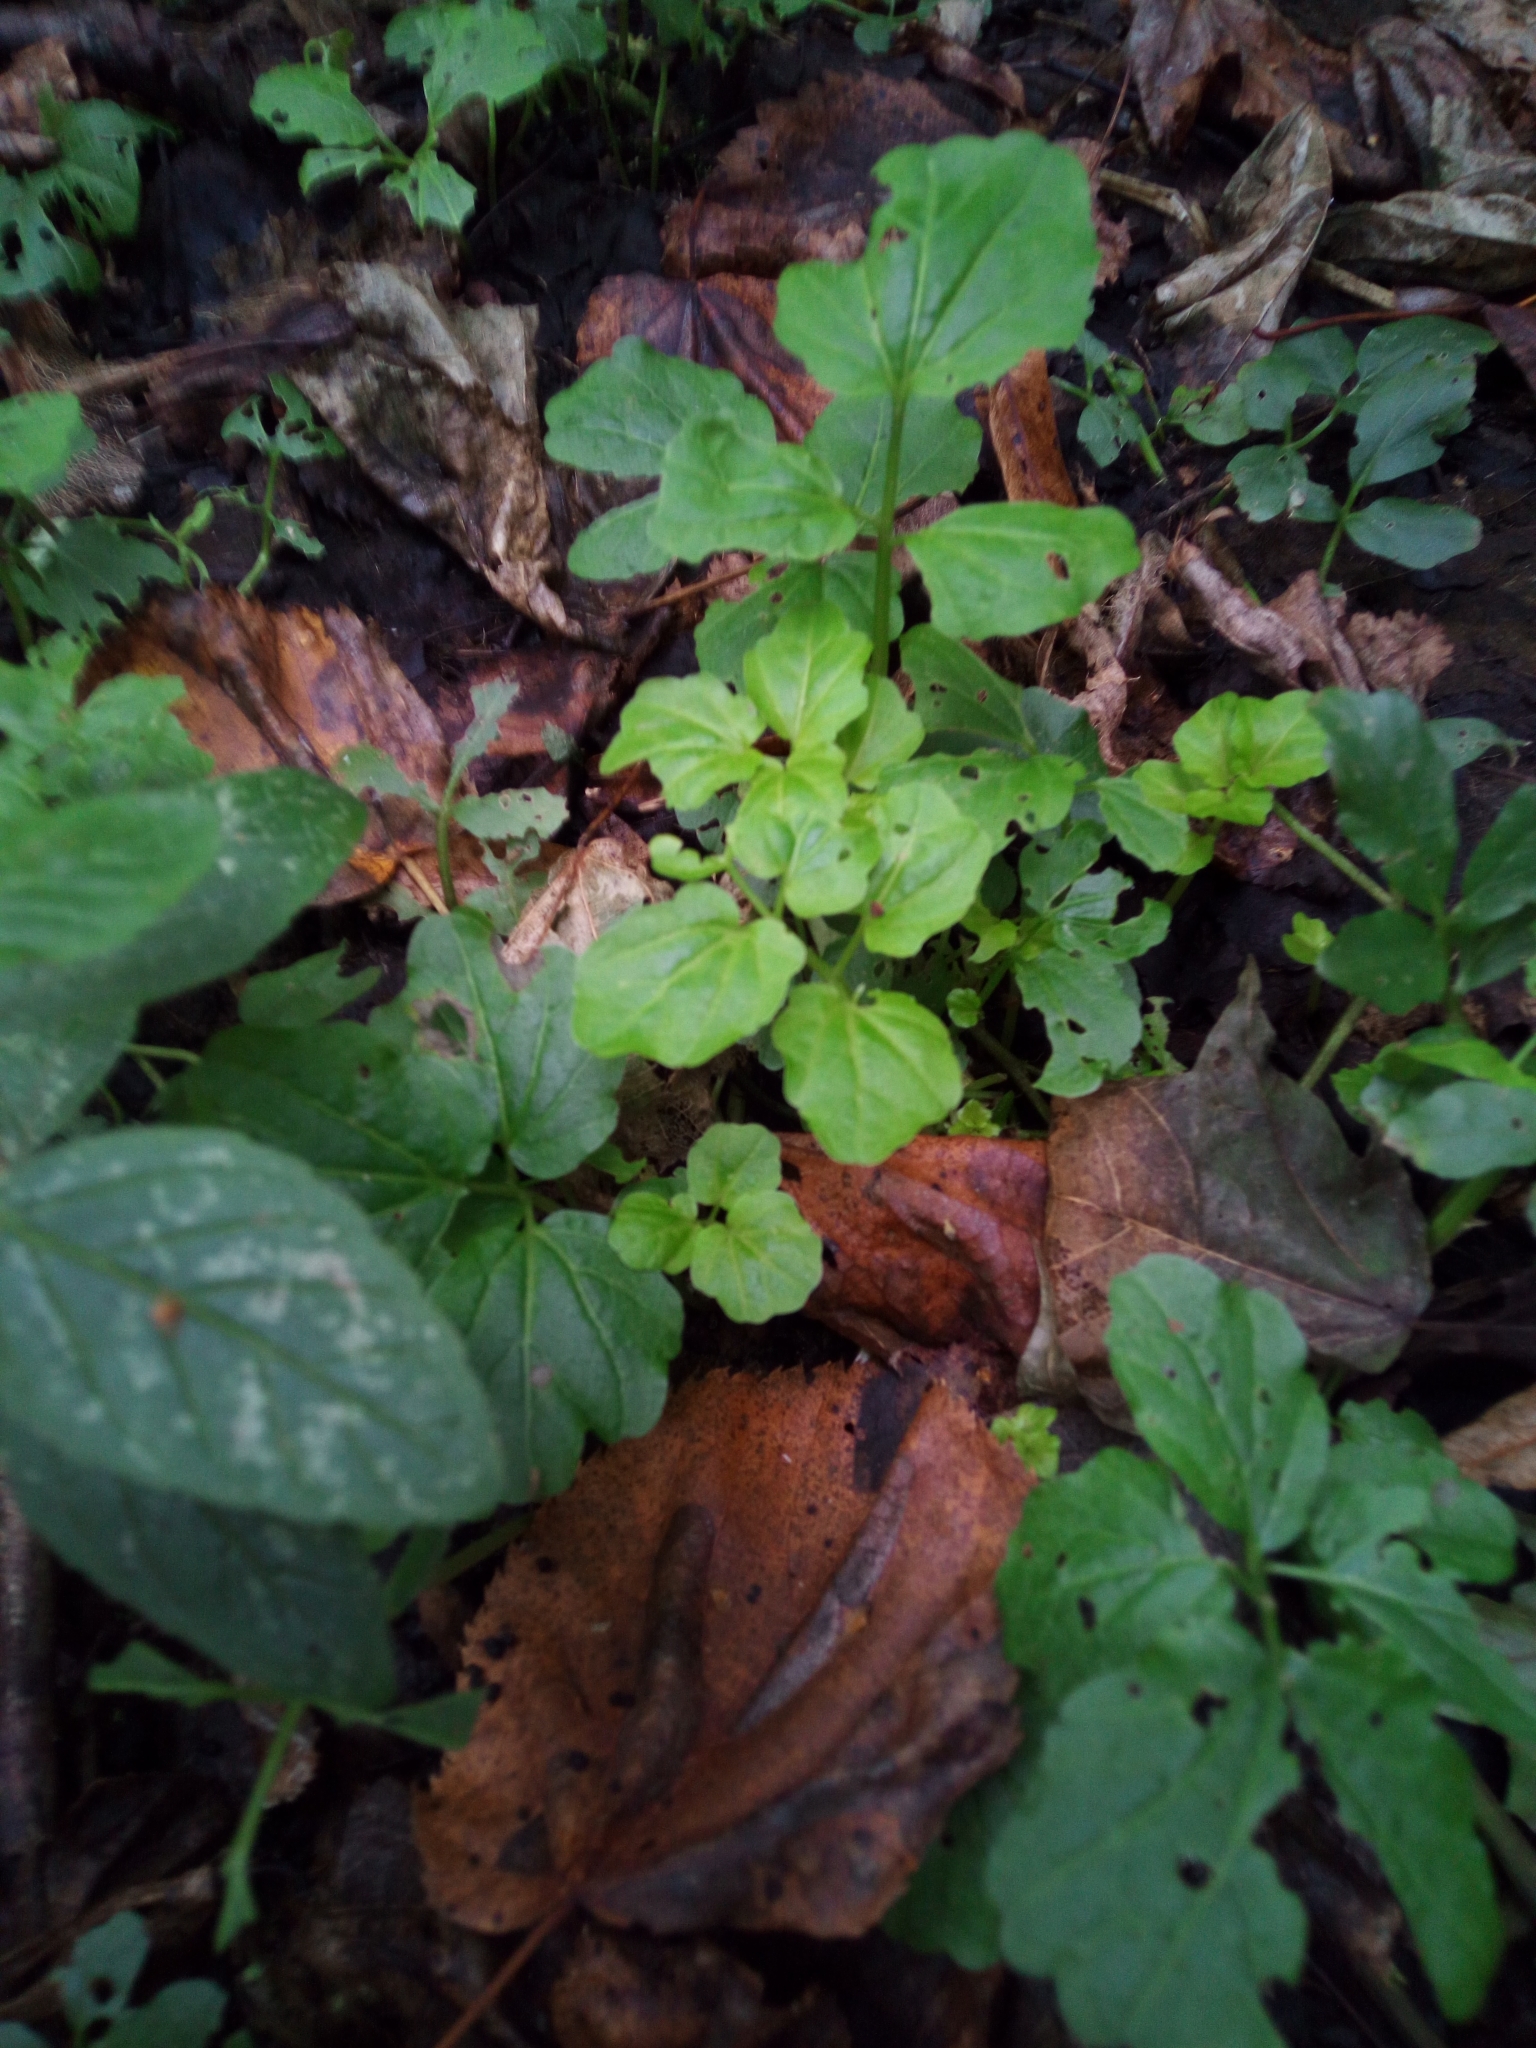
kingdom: Plantae
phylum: Tracheophyta
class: Magnoliopsida
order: Brassicales
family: Brassicaceae
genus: Cardamine
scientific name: Cardamine amara
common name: Large bitter-cress
